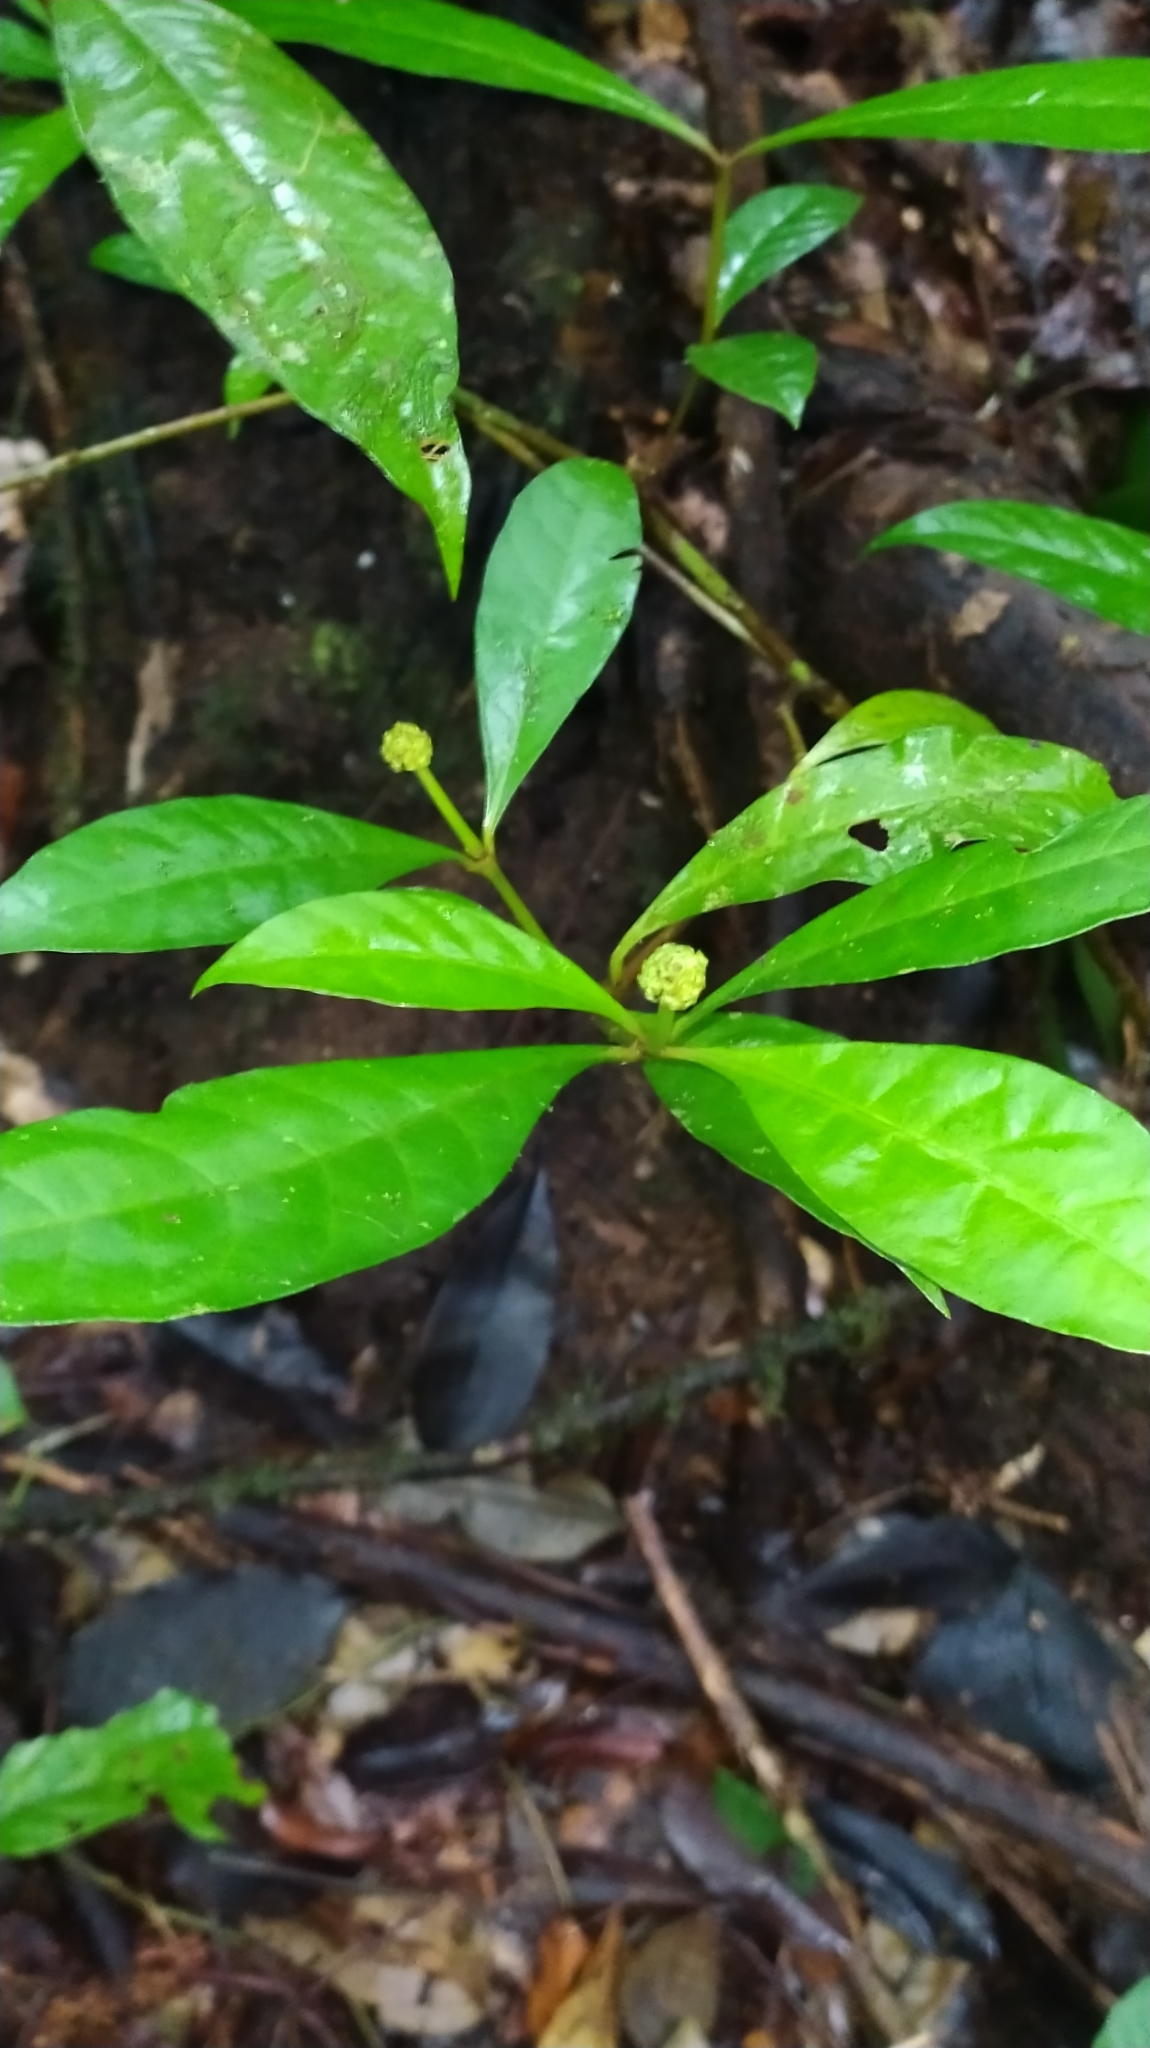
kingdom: Plantae
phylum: Tracheophyta
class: Magnoliopsida
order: Gentianales
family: Rubiaceae
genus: Eumachia
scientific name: Eumachia guianensis
